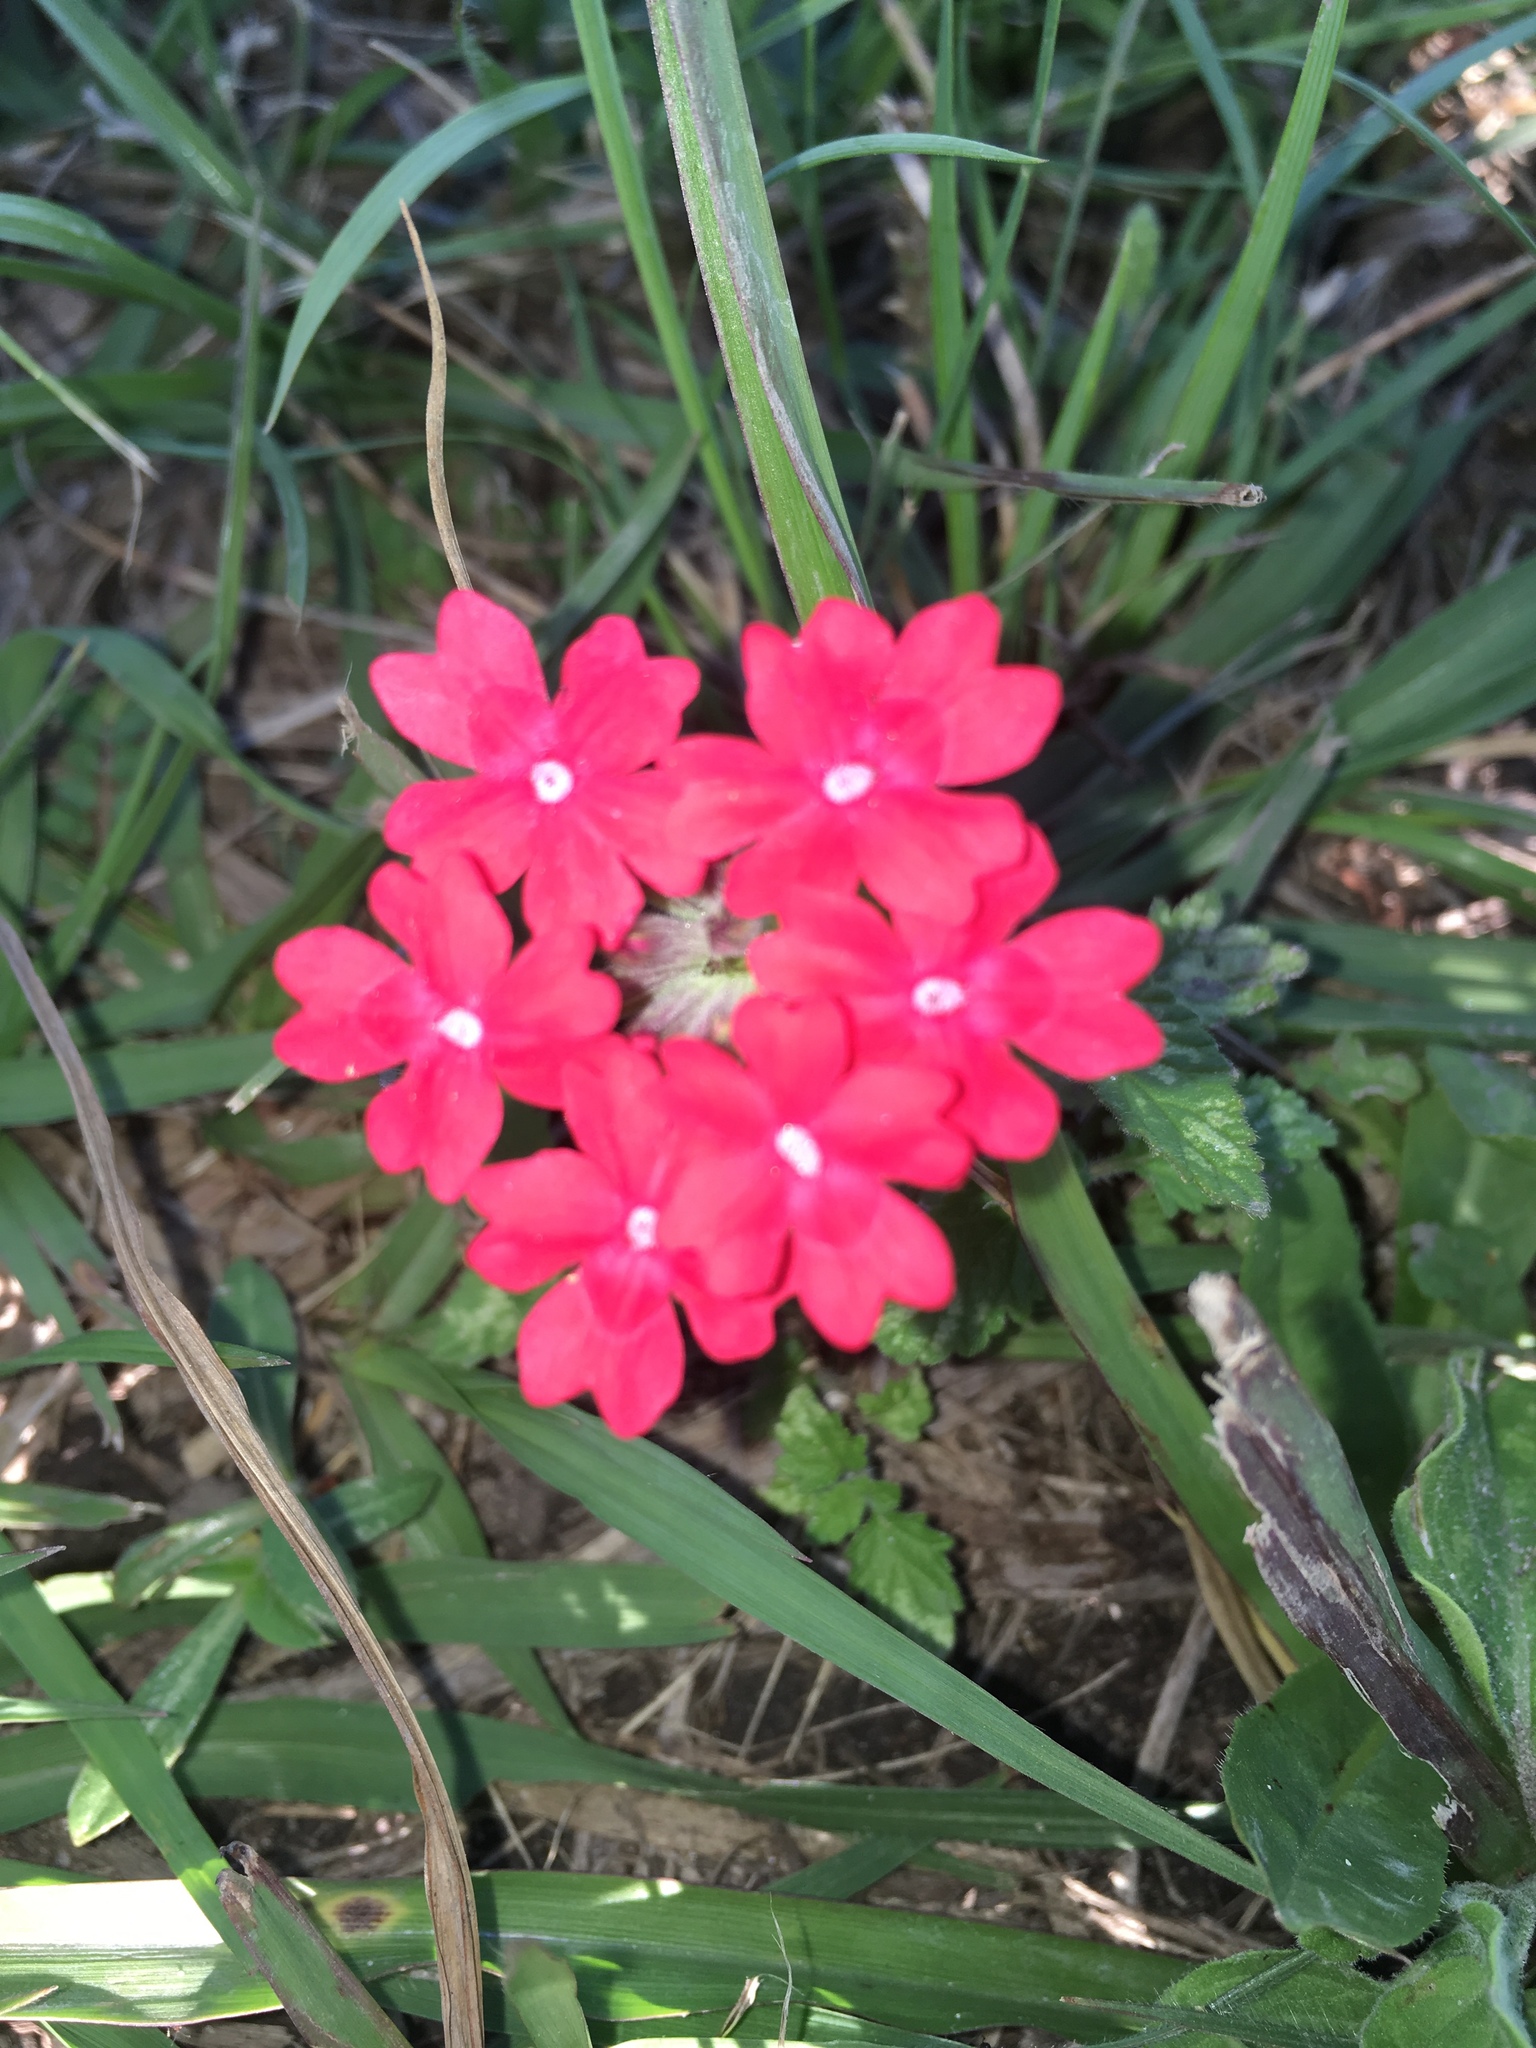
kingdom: Plantae
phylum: Tracheophyta
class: Magnoliopsida
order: Lamiales
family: Verbenaceae
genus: Verbena
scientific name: Verbena peruviana
